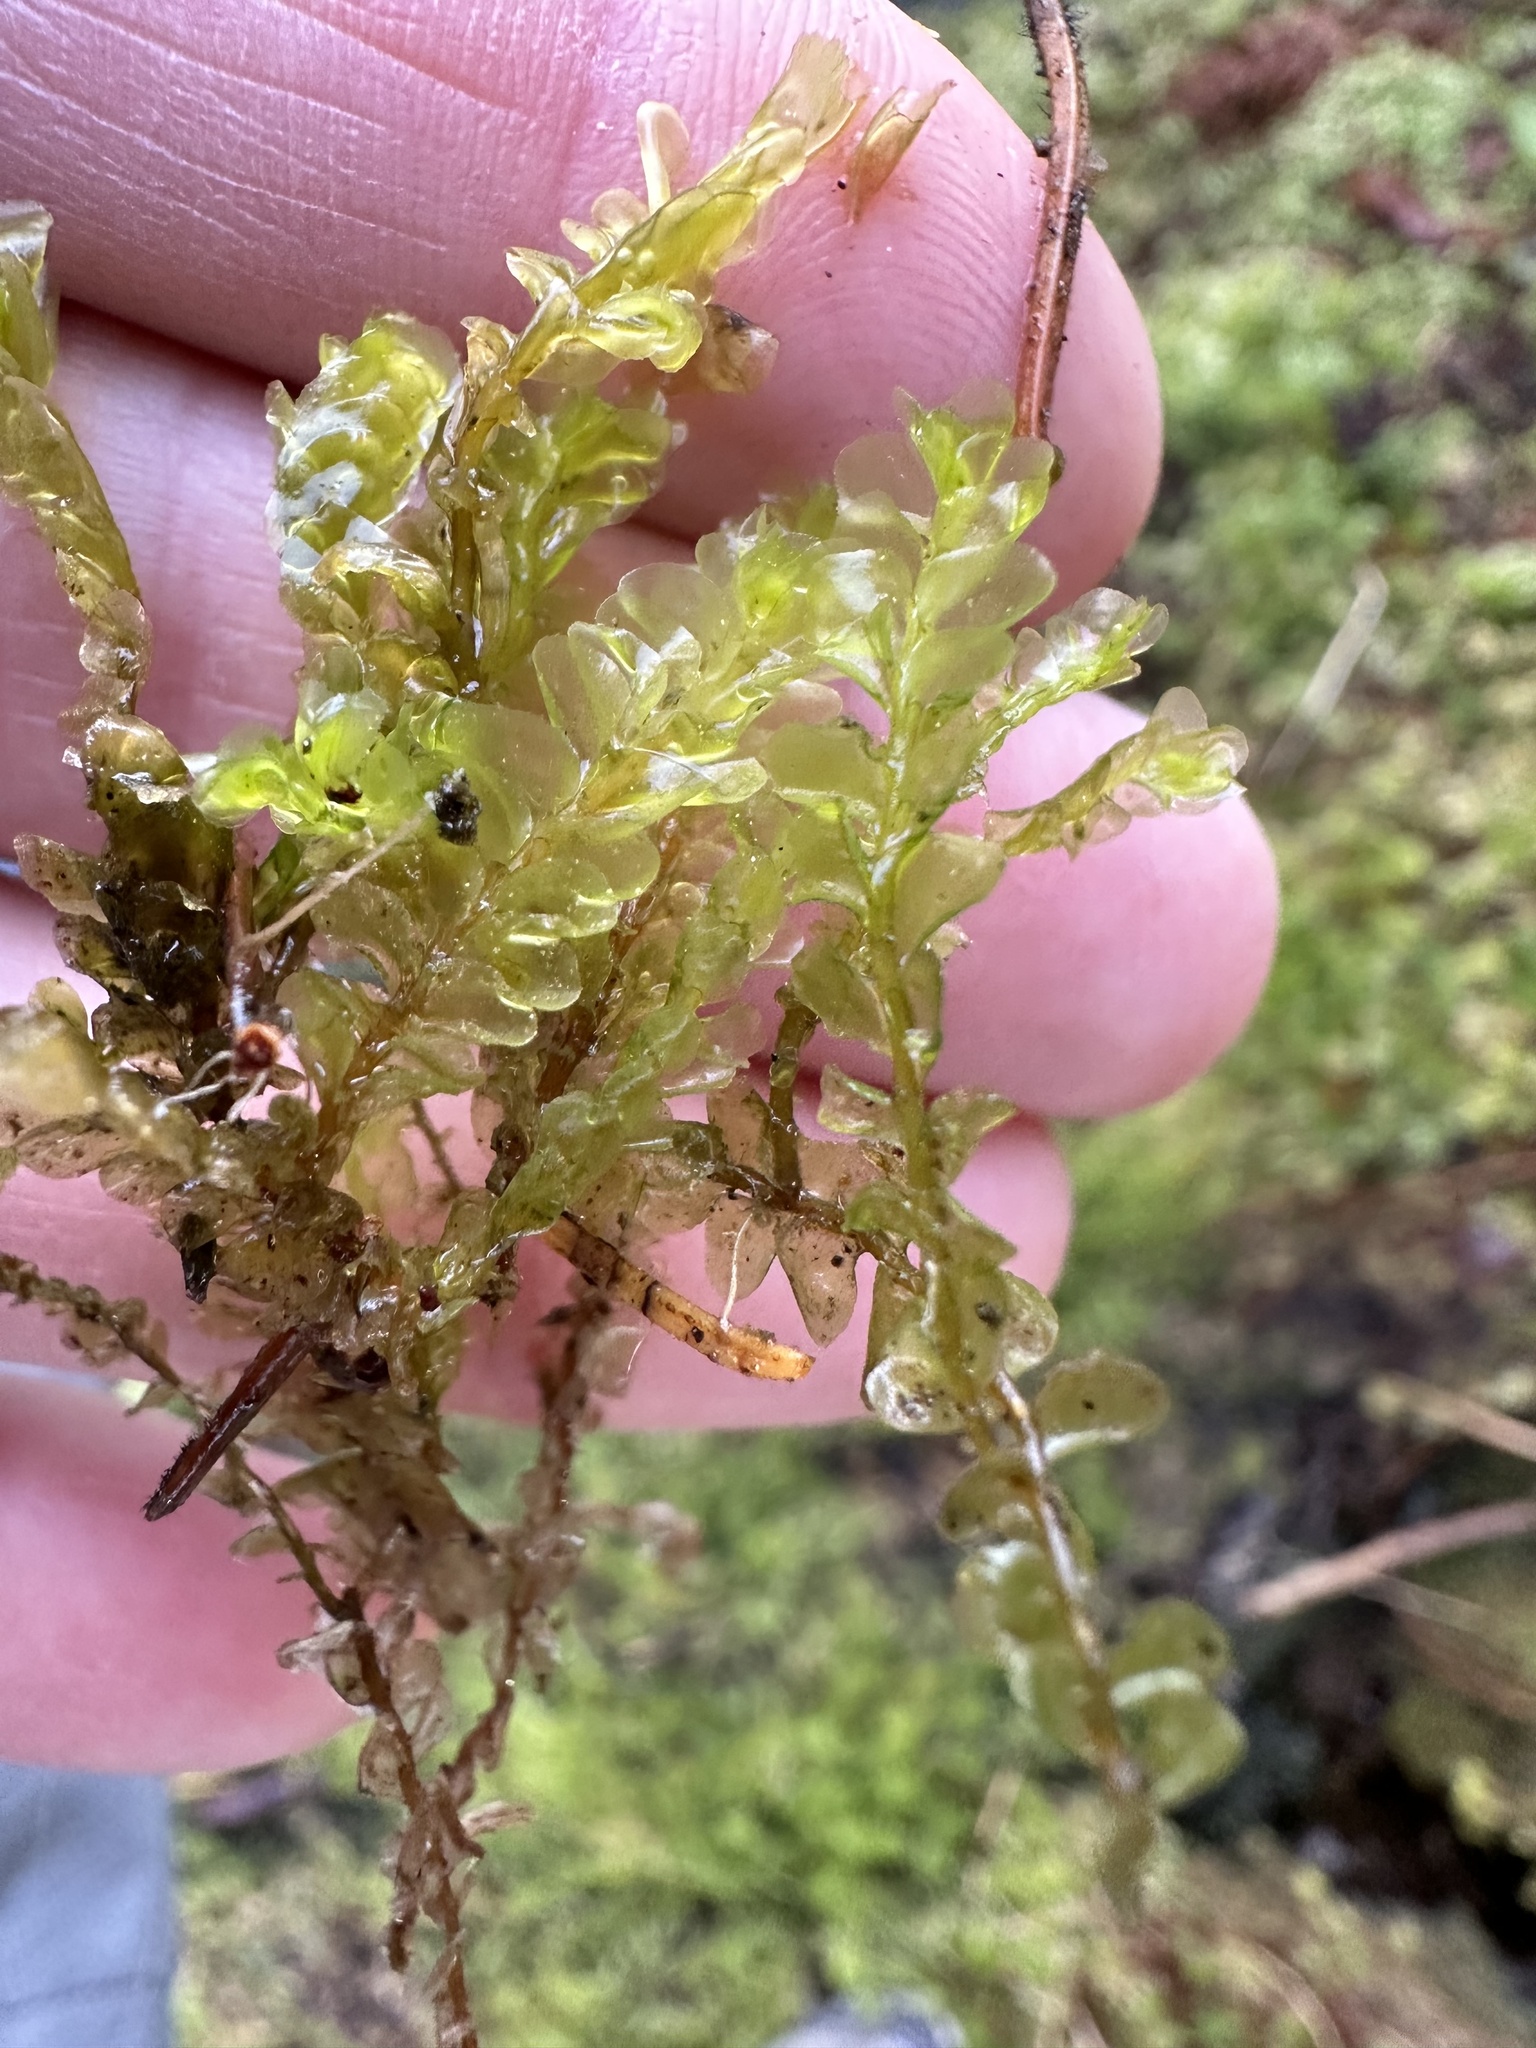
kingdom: Plantae
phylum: Marchantiophyta
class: Jungermanniopsida
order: Jungermanniales
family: Plagiochilaceae
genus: Plagiochila
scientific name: Plagiochila asplenioides
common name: Greater featherwort
